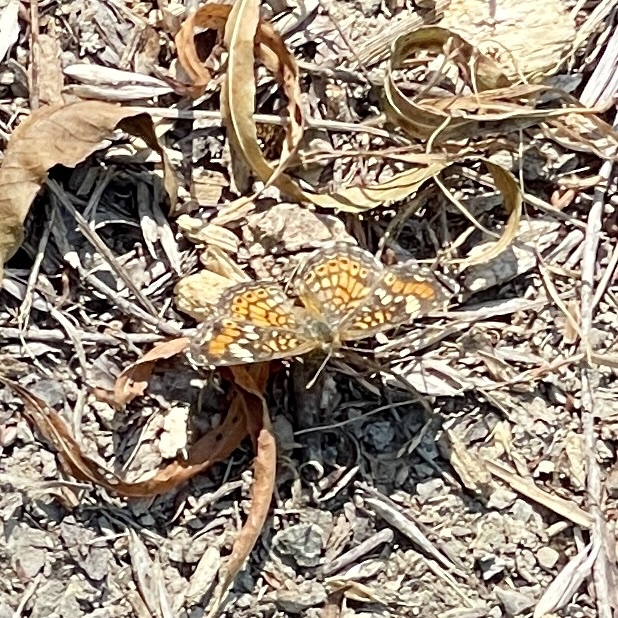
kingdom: Animalia
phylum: Arthropoda
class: Insecta
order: Lepidoptera
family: Nymphalidae
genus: Phyciodes
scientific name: Phyciodes phaon
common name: Phaon crescent
